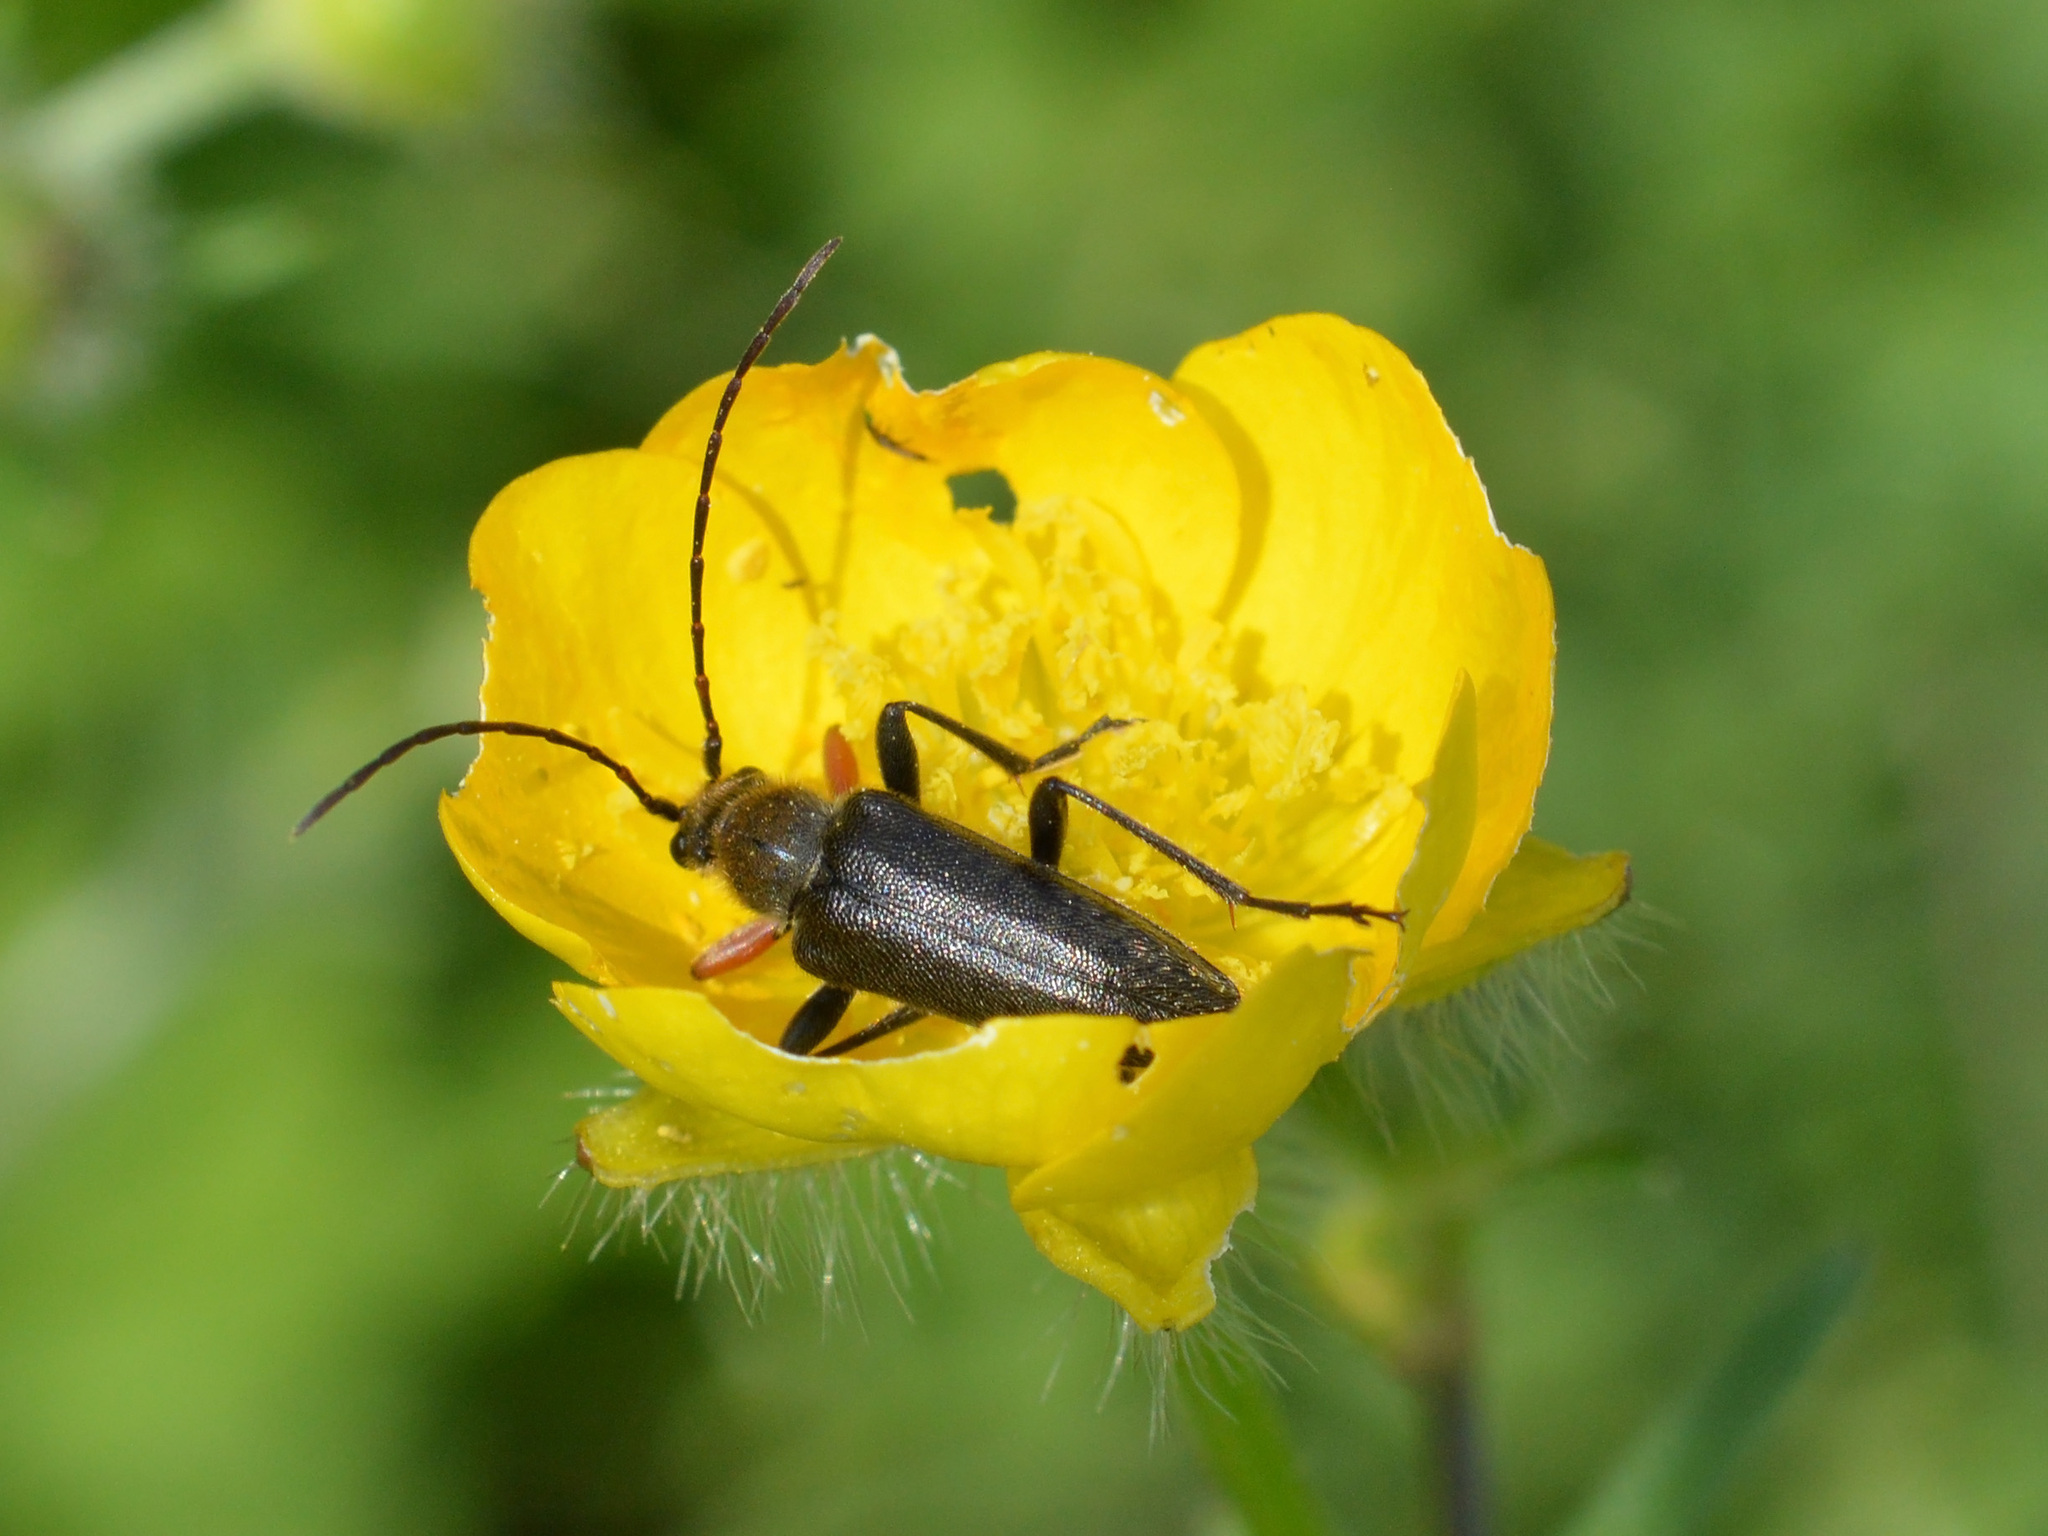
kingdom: Animalia
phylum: Arthropoda
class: Insecta
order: Coleoptera
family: Cerambycidae
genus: Cortodera
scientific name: Cortodera flavimana
